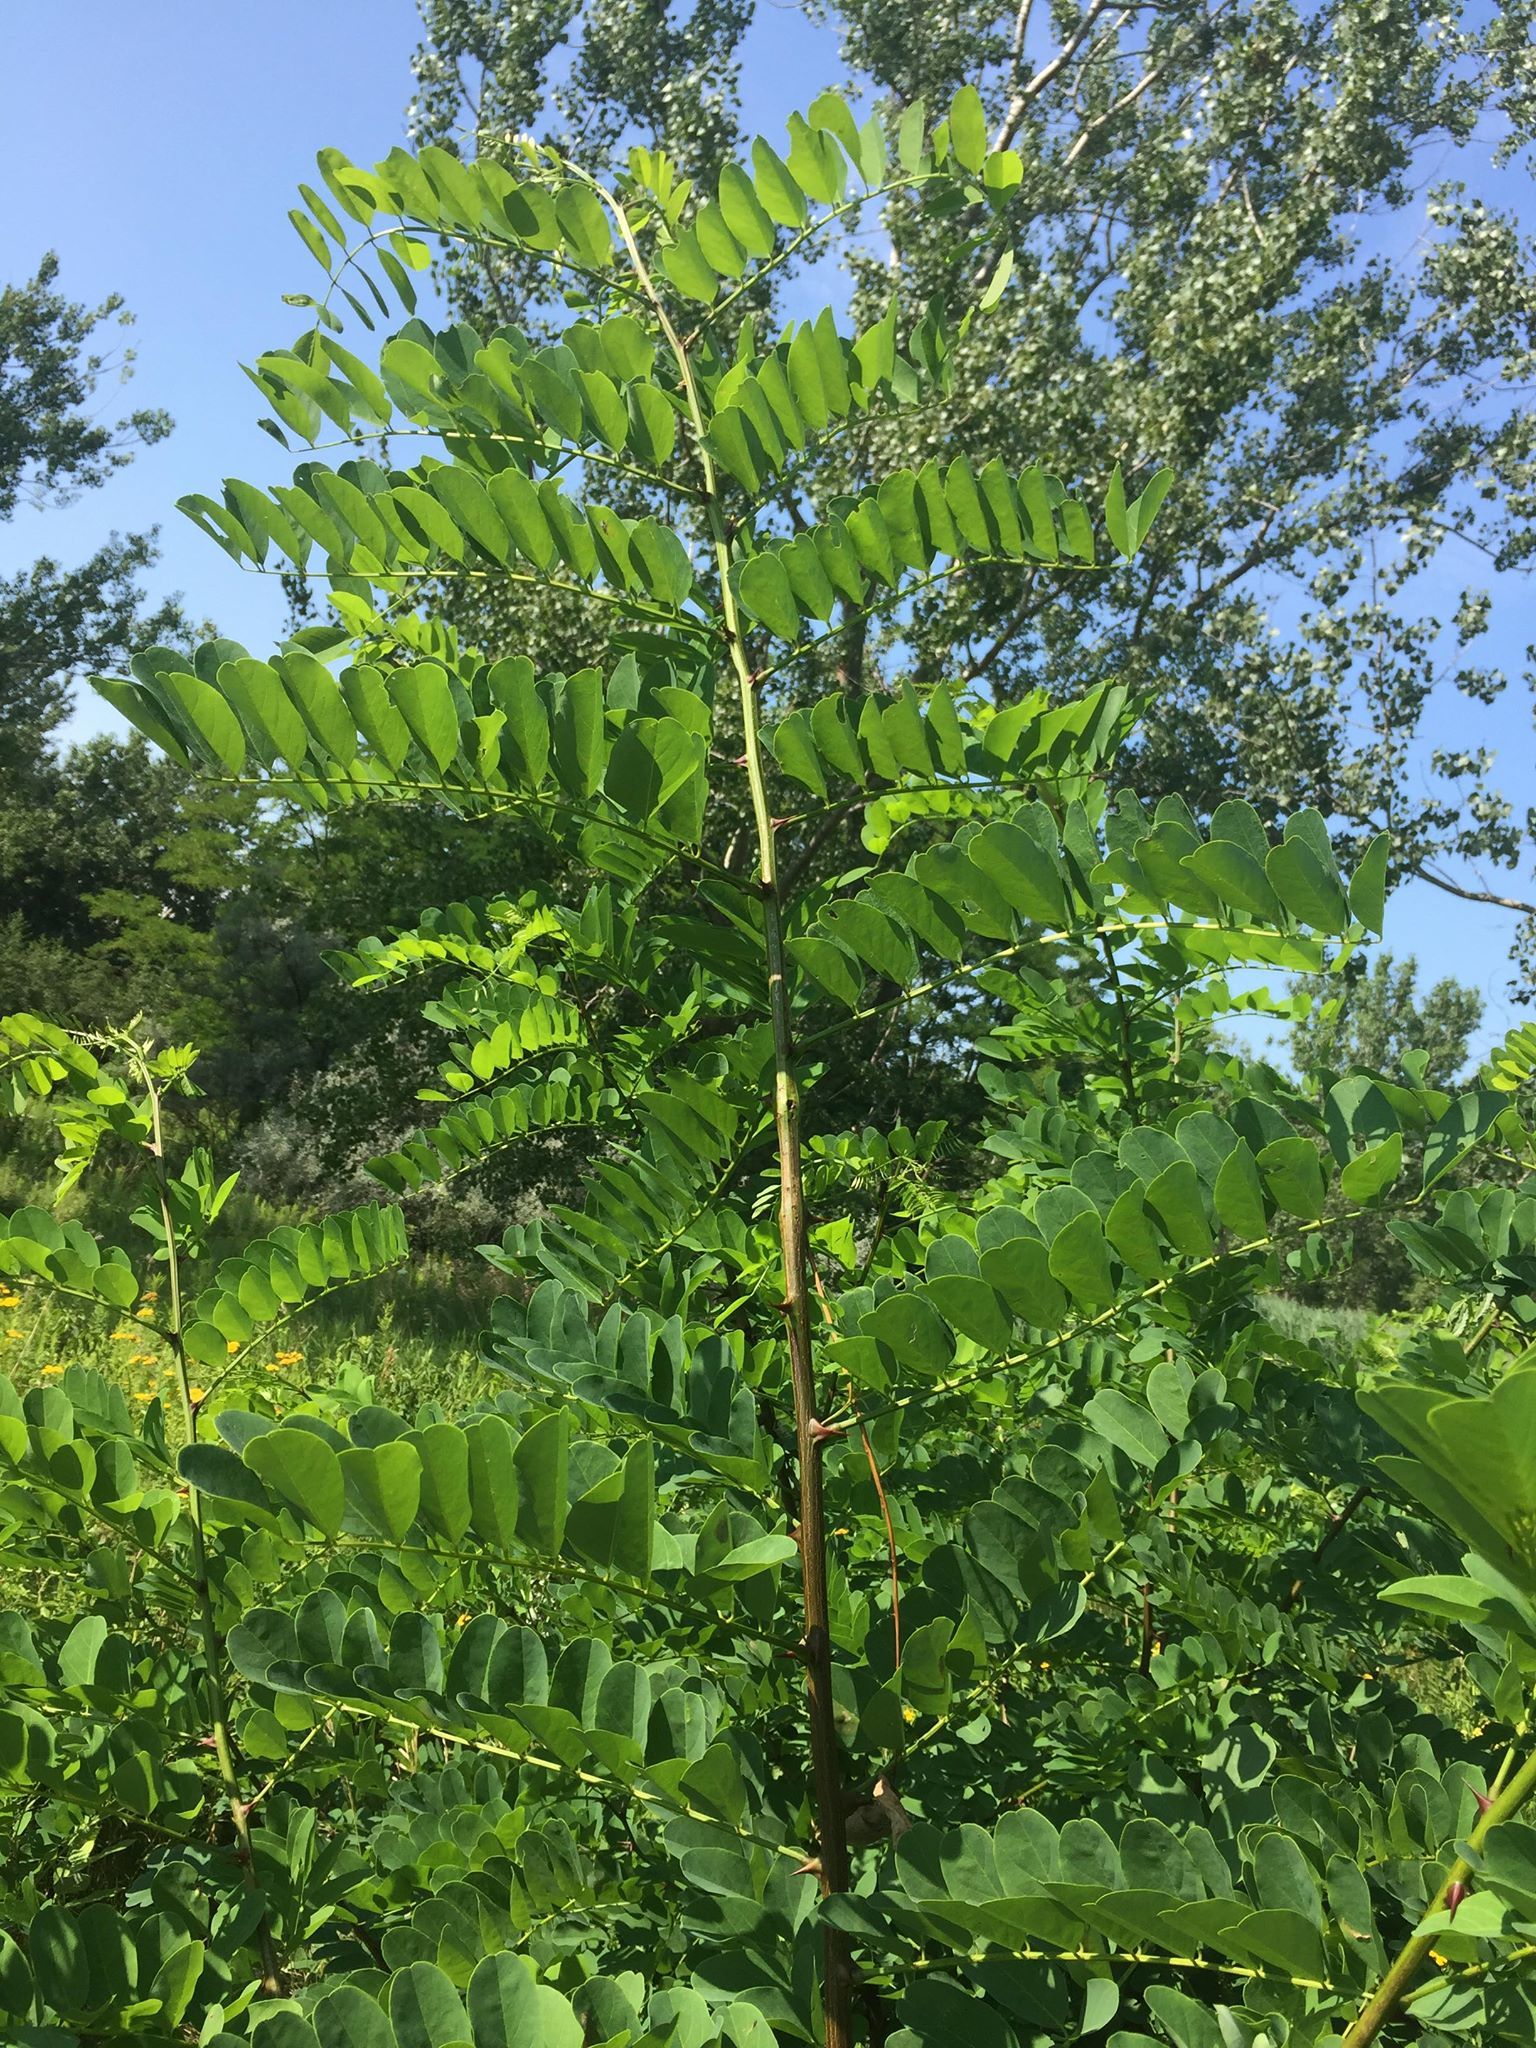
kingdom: Plantae
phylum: Tracheophyta
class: Magnoliopsida
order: Fabales
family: Fabaceae
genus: Robinia
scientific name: Robinia pseudoacacia
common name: Black locust
